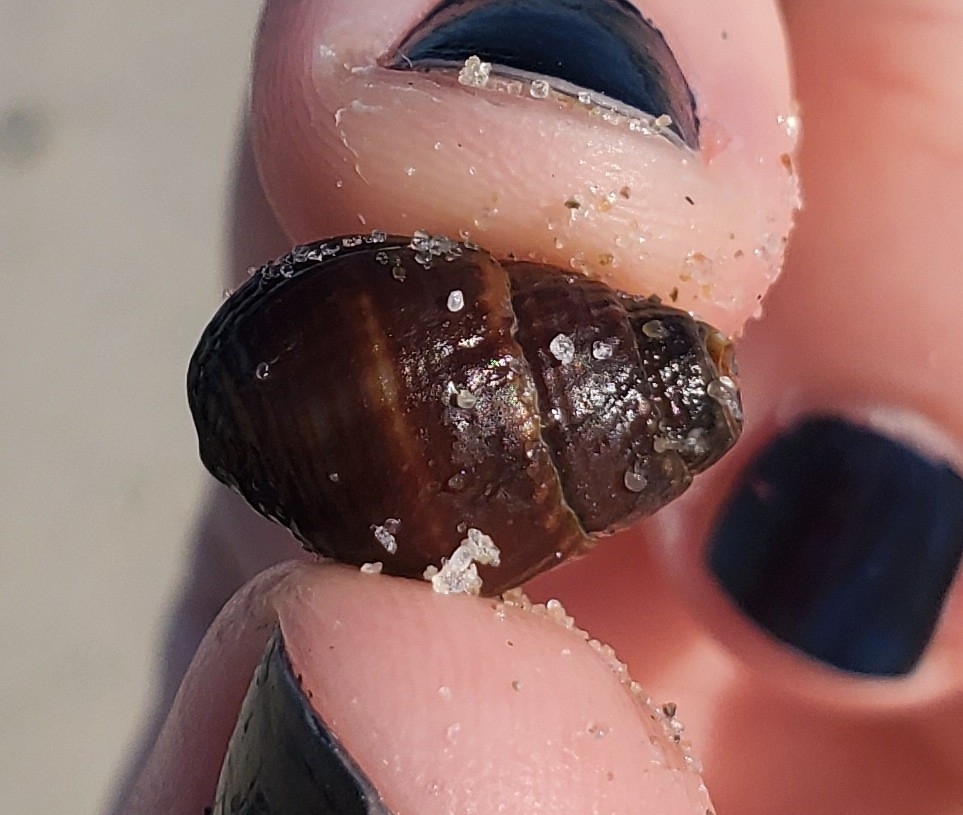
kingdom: Animalia
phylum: Mollusca
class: Gastropoda
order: Neogastropoda
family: Nassariidae
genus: Ilyanassa
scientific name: Ilyanassa obsoleta
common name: Eastern mudsnail
